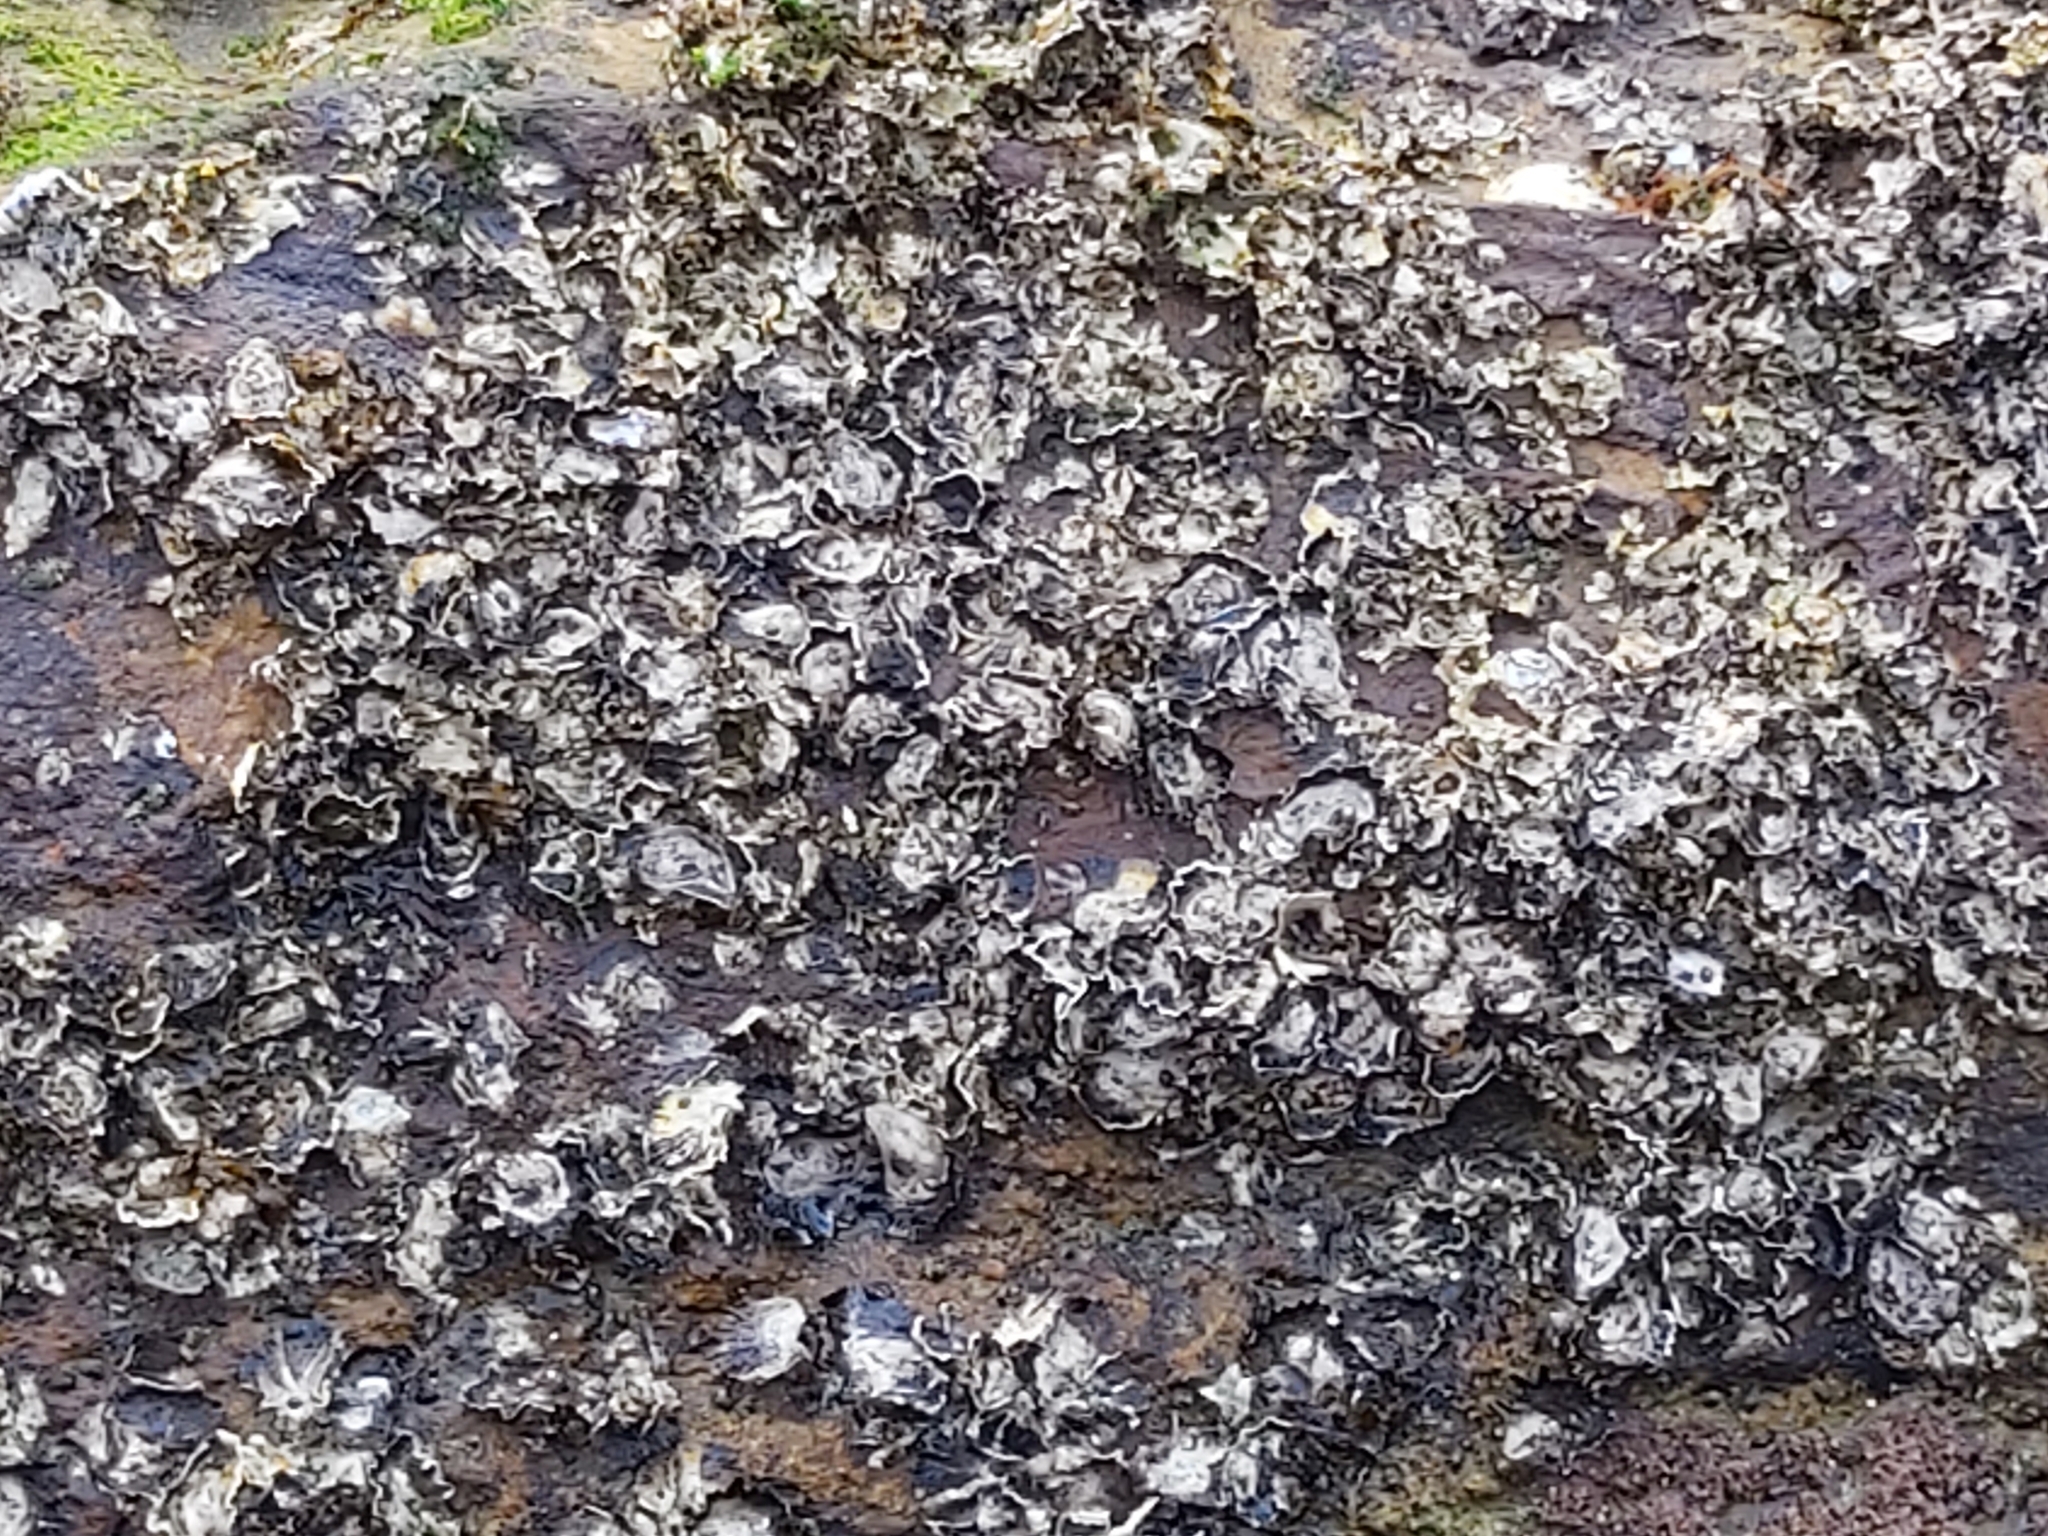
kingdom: Animalia
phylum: Mollusca
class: Bivalvia
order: Ostreida
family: Ostreidae
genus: Saccostrea
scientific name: Saccostrea glomerata
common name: Sydney cupped oyster
